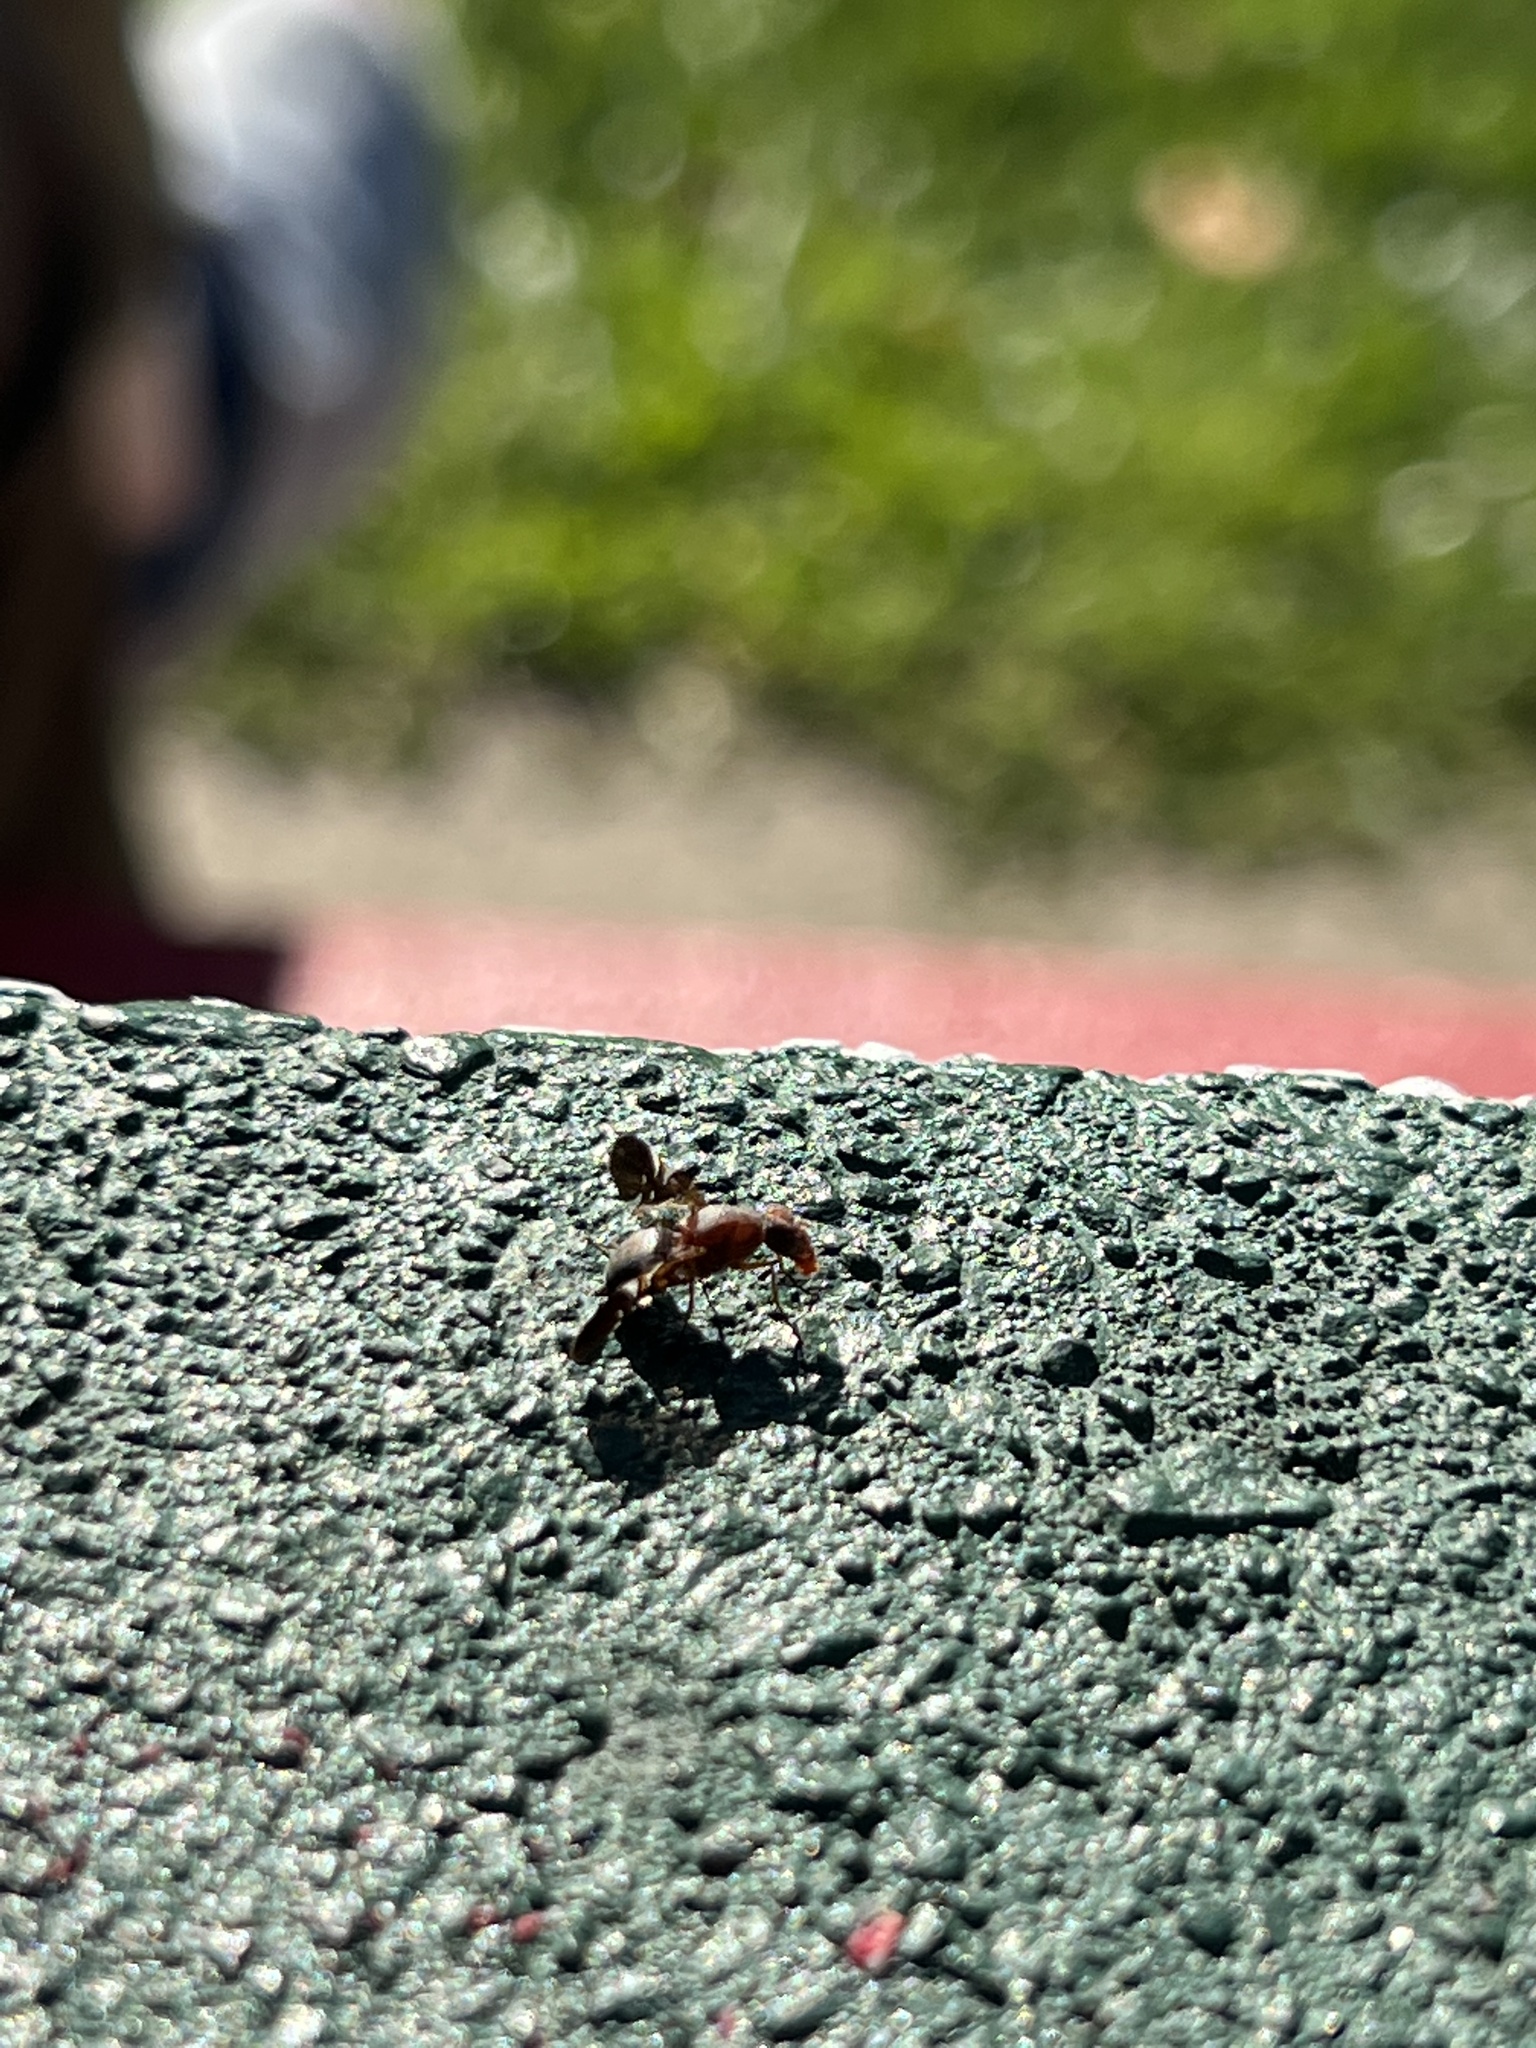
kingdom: Animalia
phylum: Arthropoda
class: Insecta
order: Diptera
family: Ulidiidae
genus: Delphinia
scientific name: Delphinia picta
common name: Common picture-winged fly
